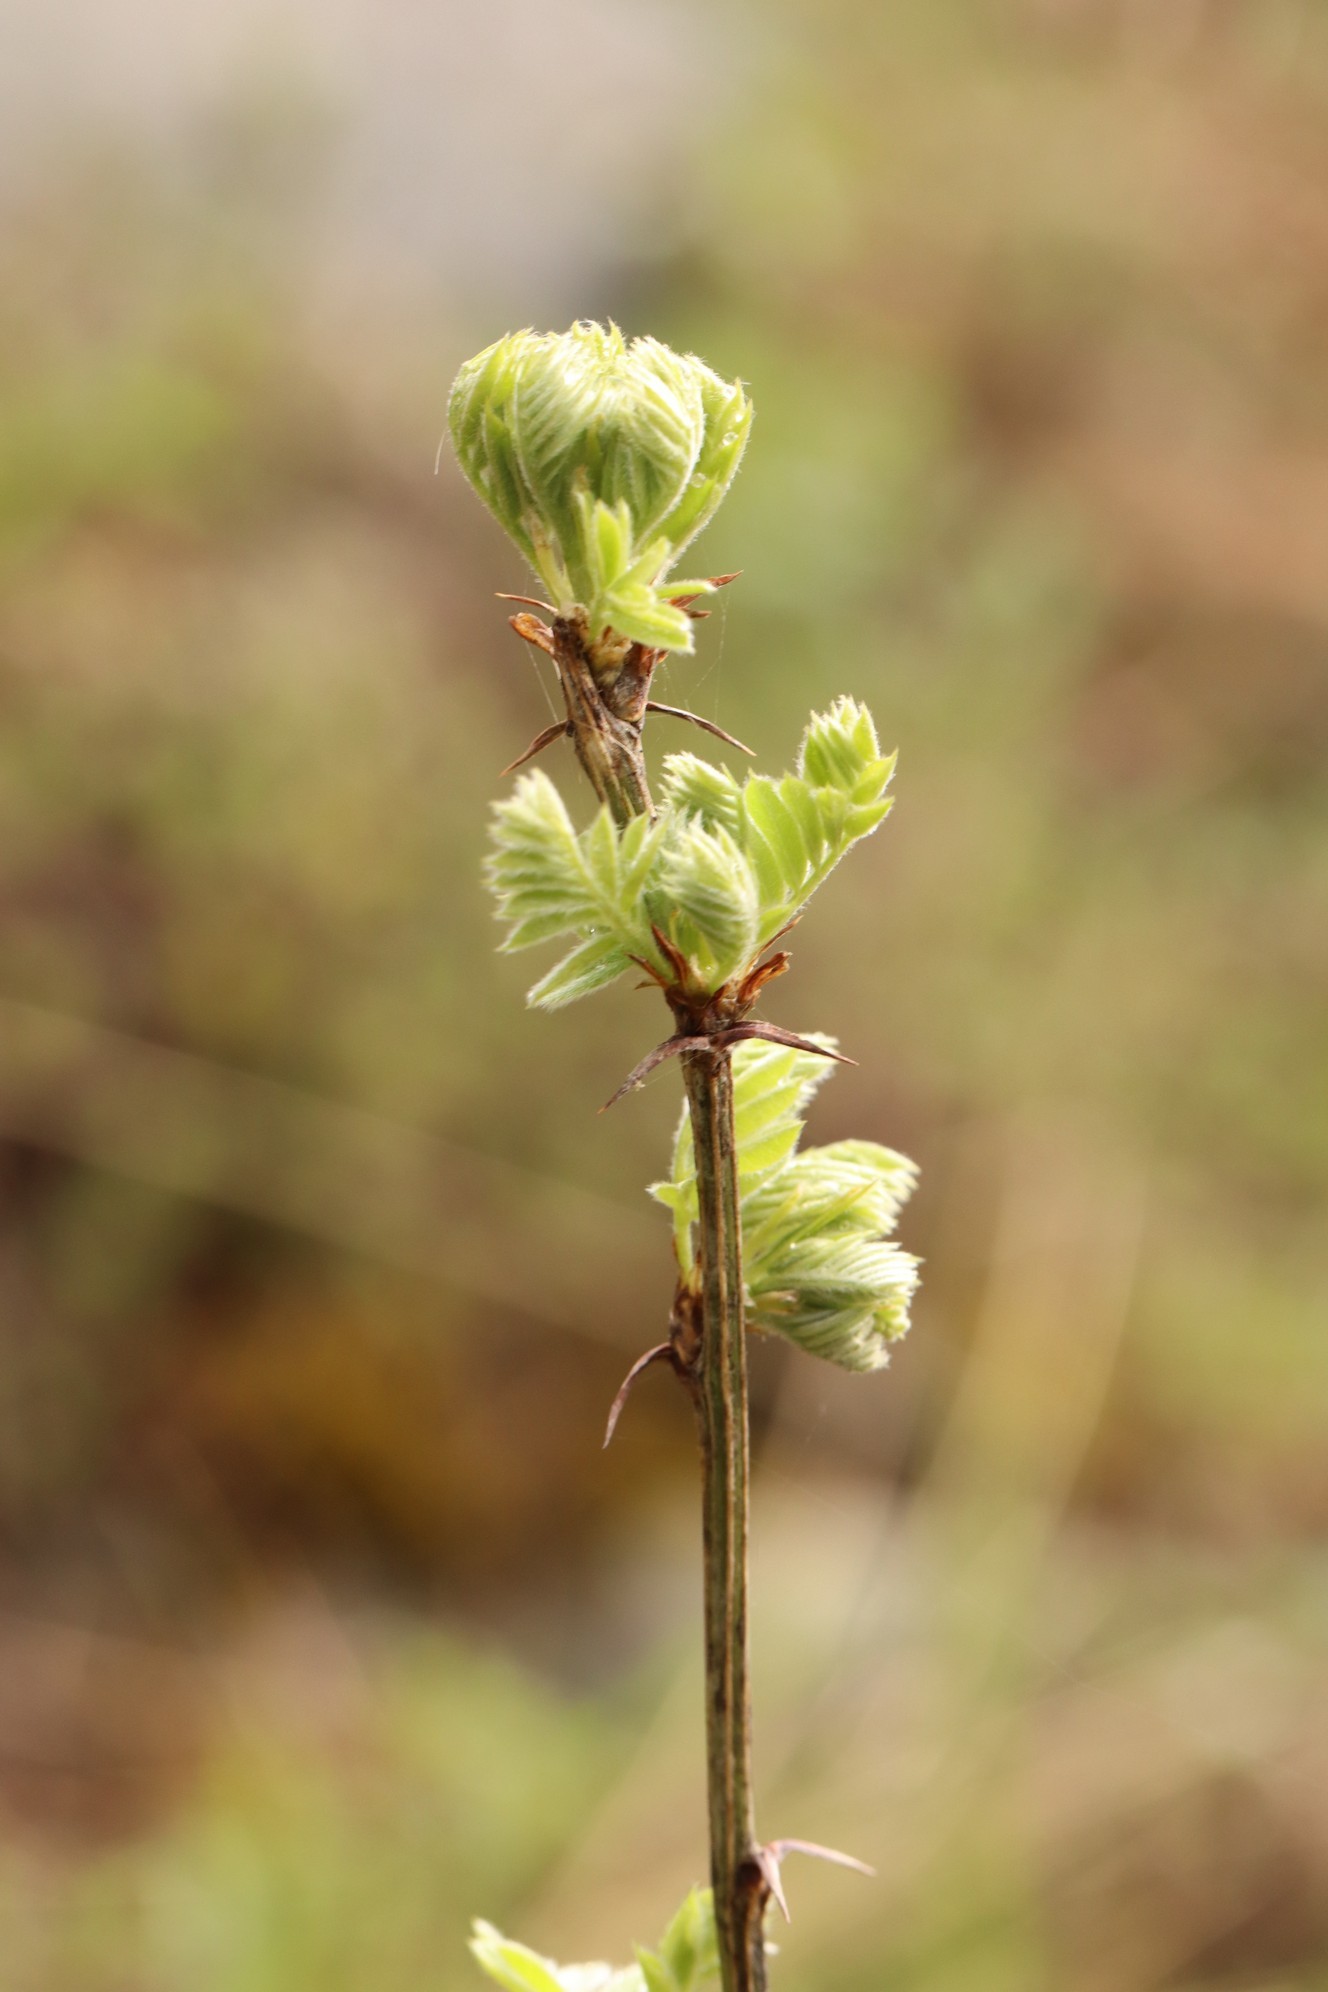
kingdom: Plantae
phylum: Tracheophyta
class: Magnoliopsida
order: Fabales
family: Fabaceae
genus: Caragana
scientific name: Caragana arborescens
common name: Siberian peashrub
